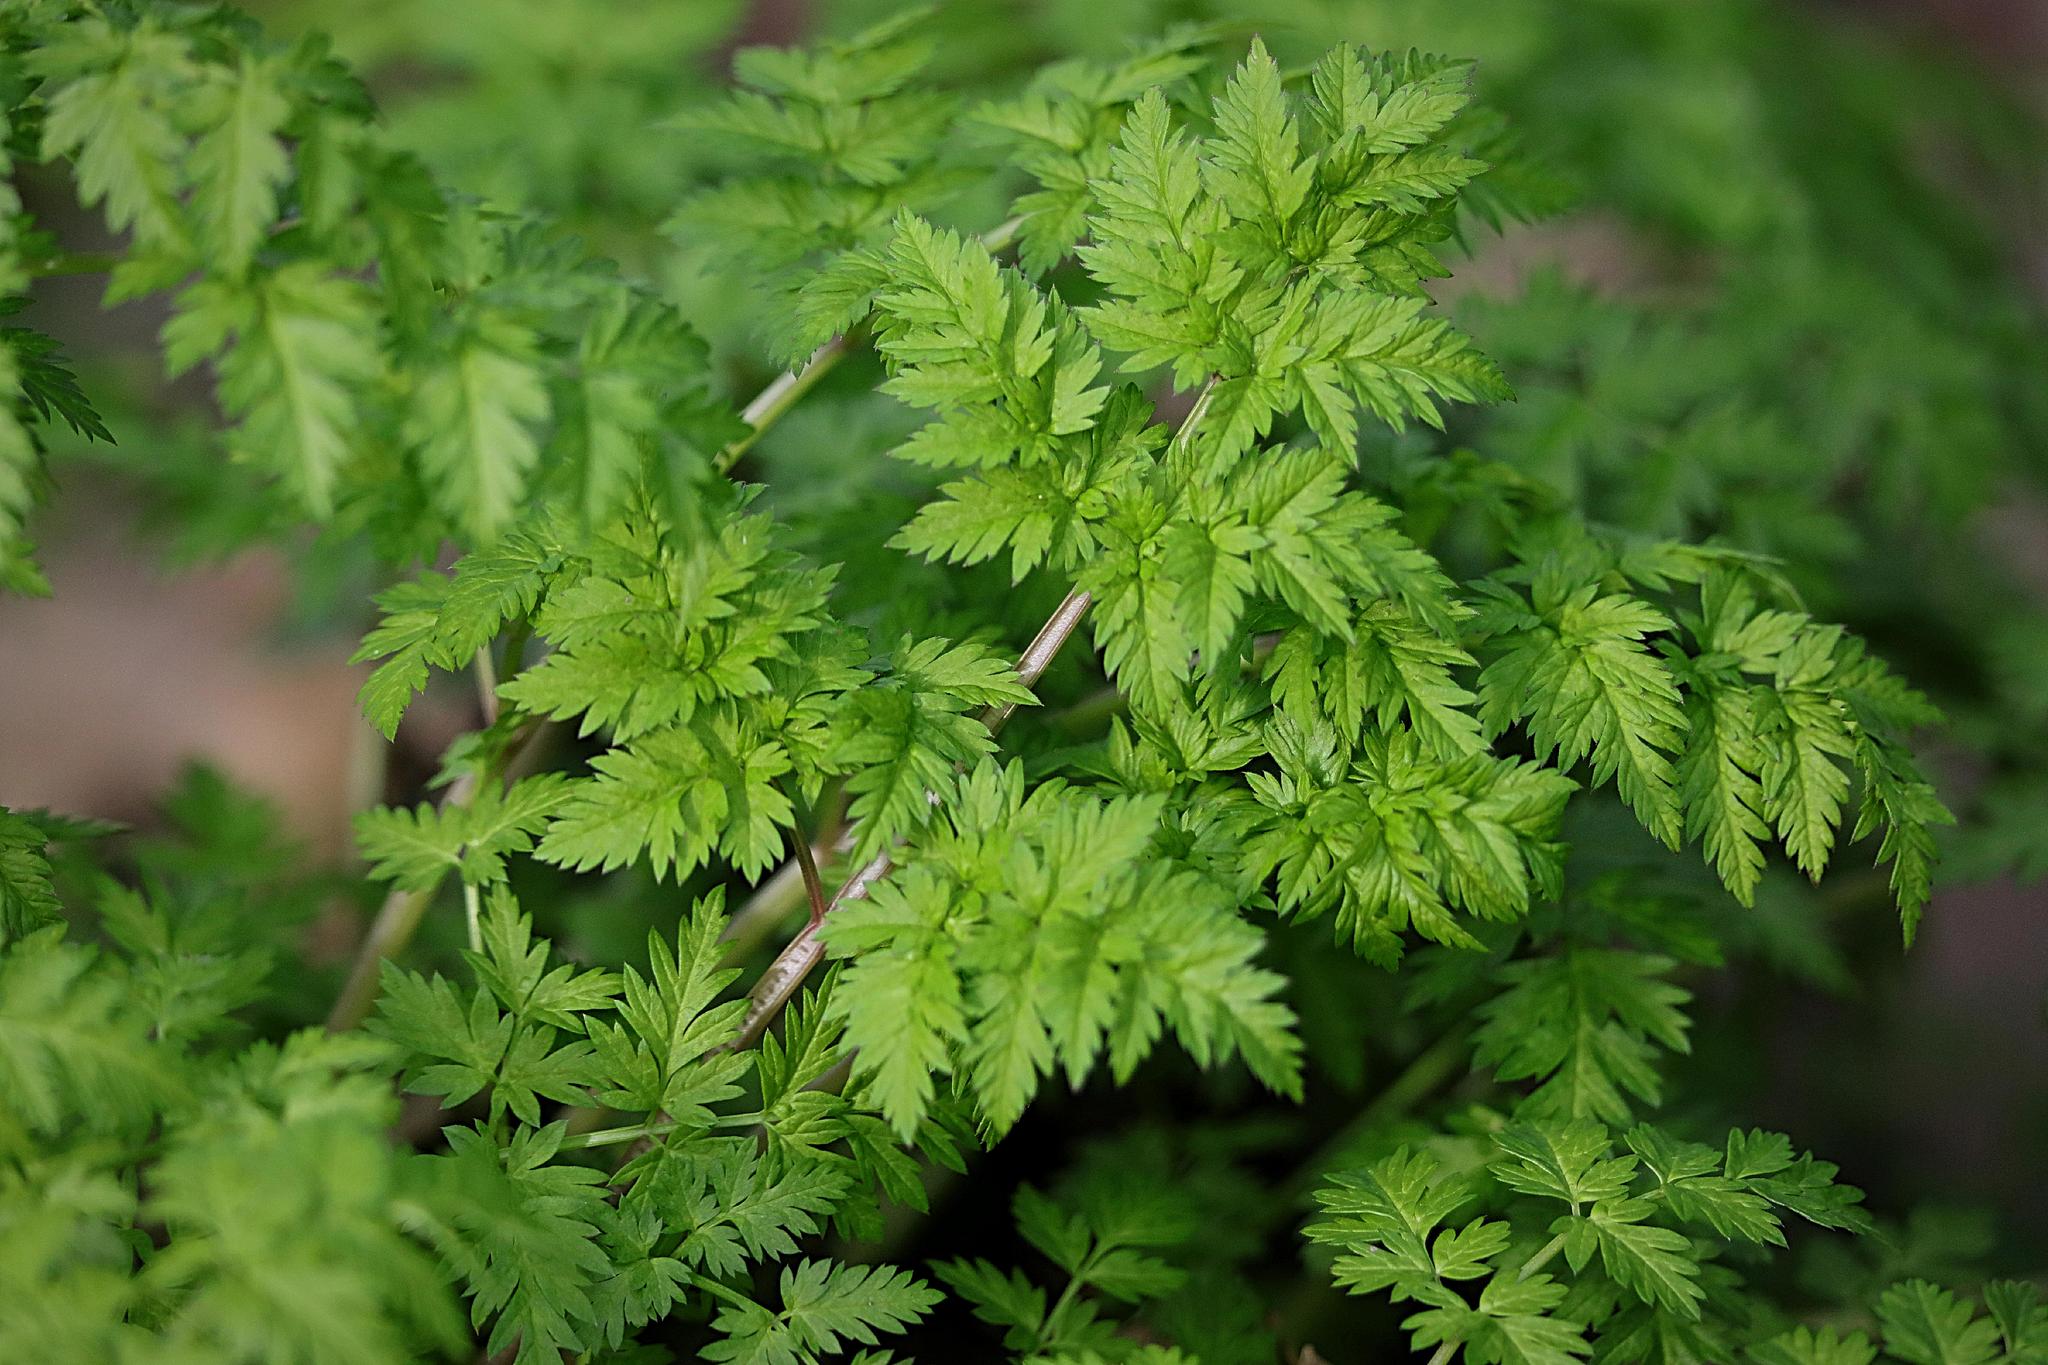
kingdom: Plantae
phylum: Tracheophyta
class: Magnoliopsida
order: Apiales
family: Apiaceae
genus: Anthriscus
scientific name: Anthriscus sylvestris
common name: Cow parsley
